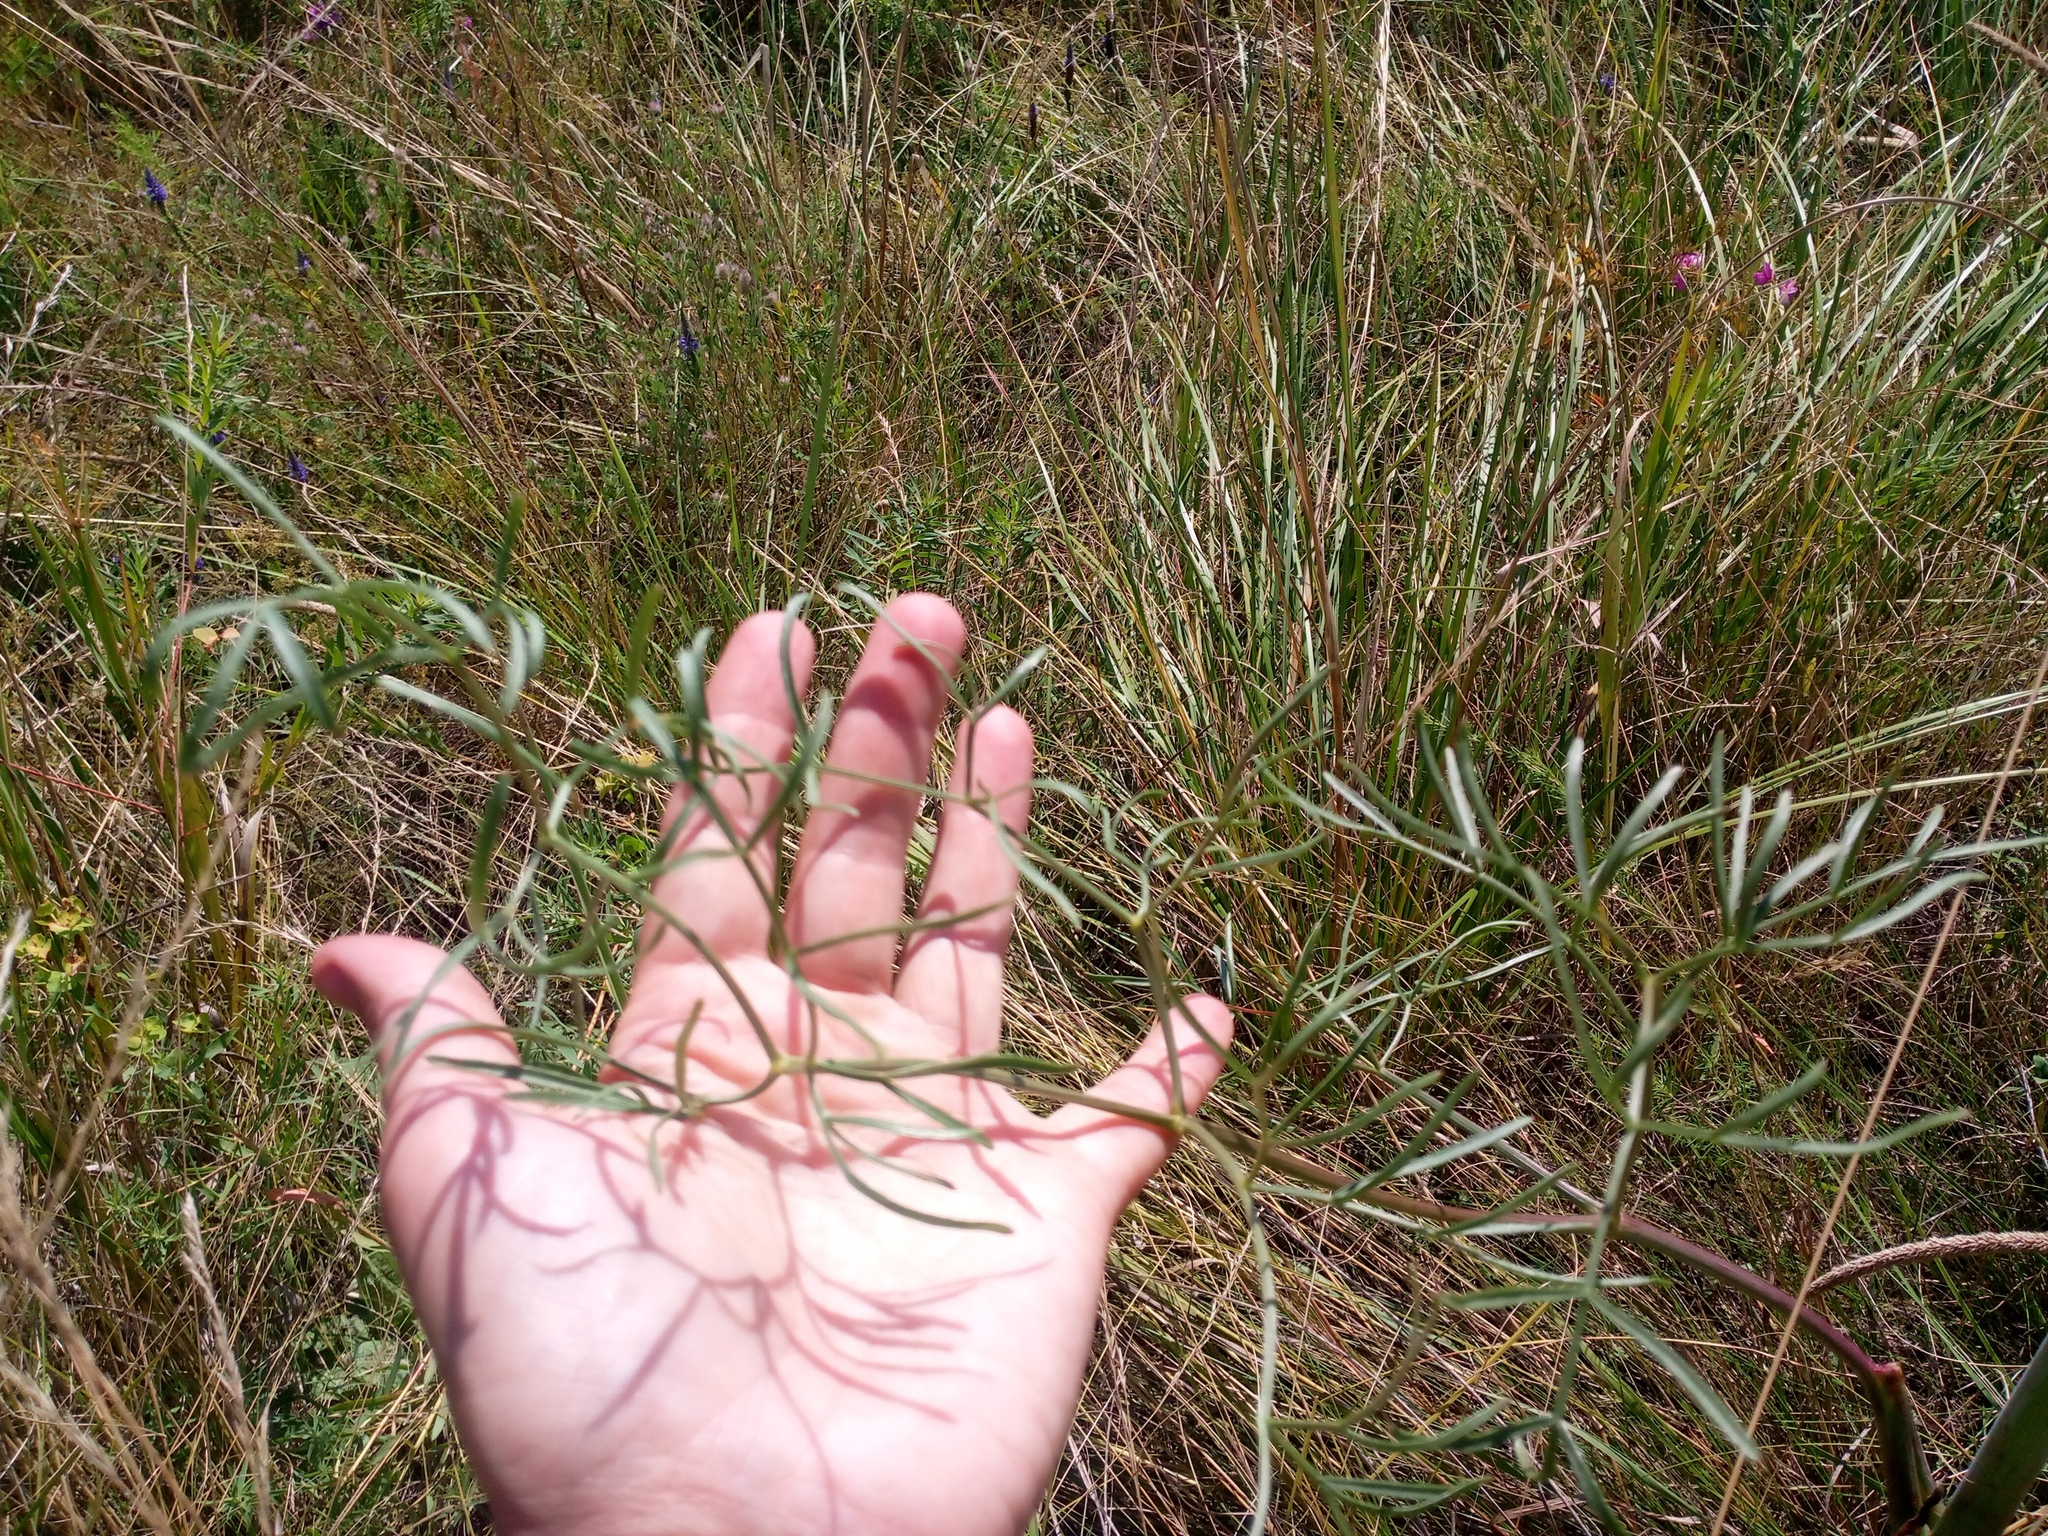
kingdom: Plantae
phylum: Tracheophyta
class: Magnoliopsida
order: Apiales
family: Apiaceae
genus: Taeniopetalum
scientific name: Taeniopetalum arenarium
